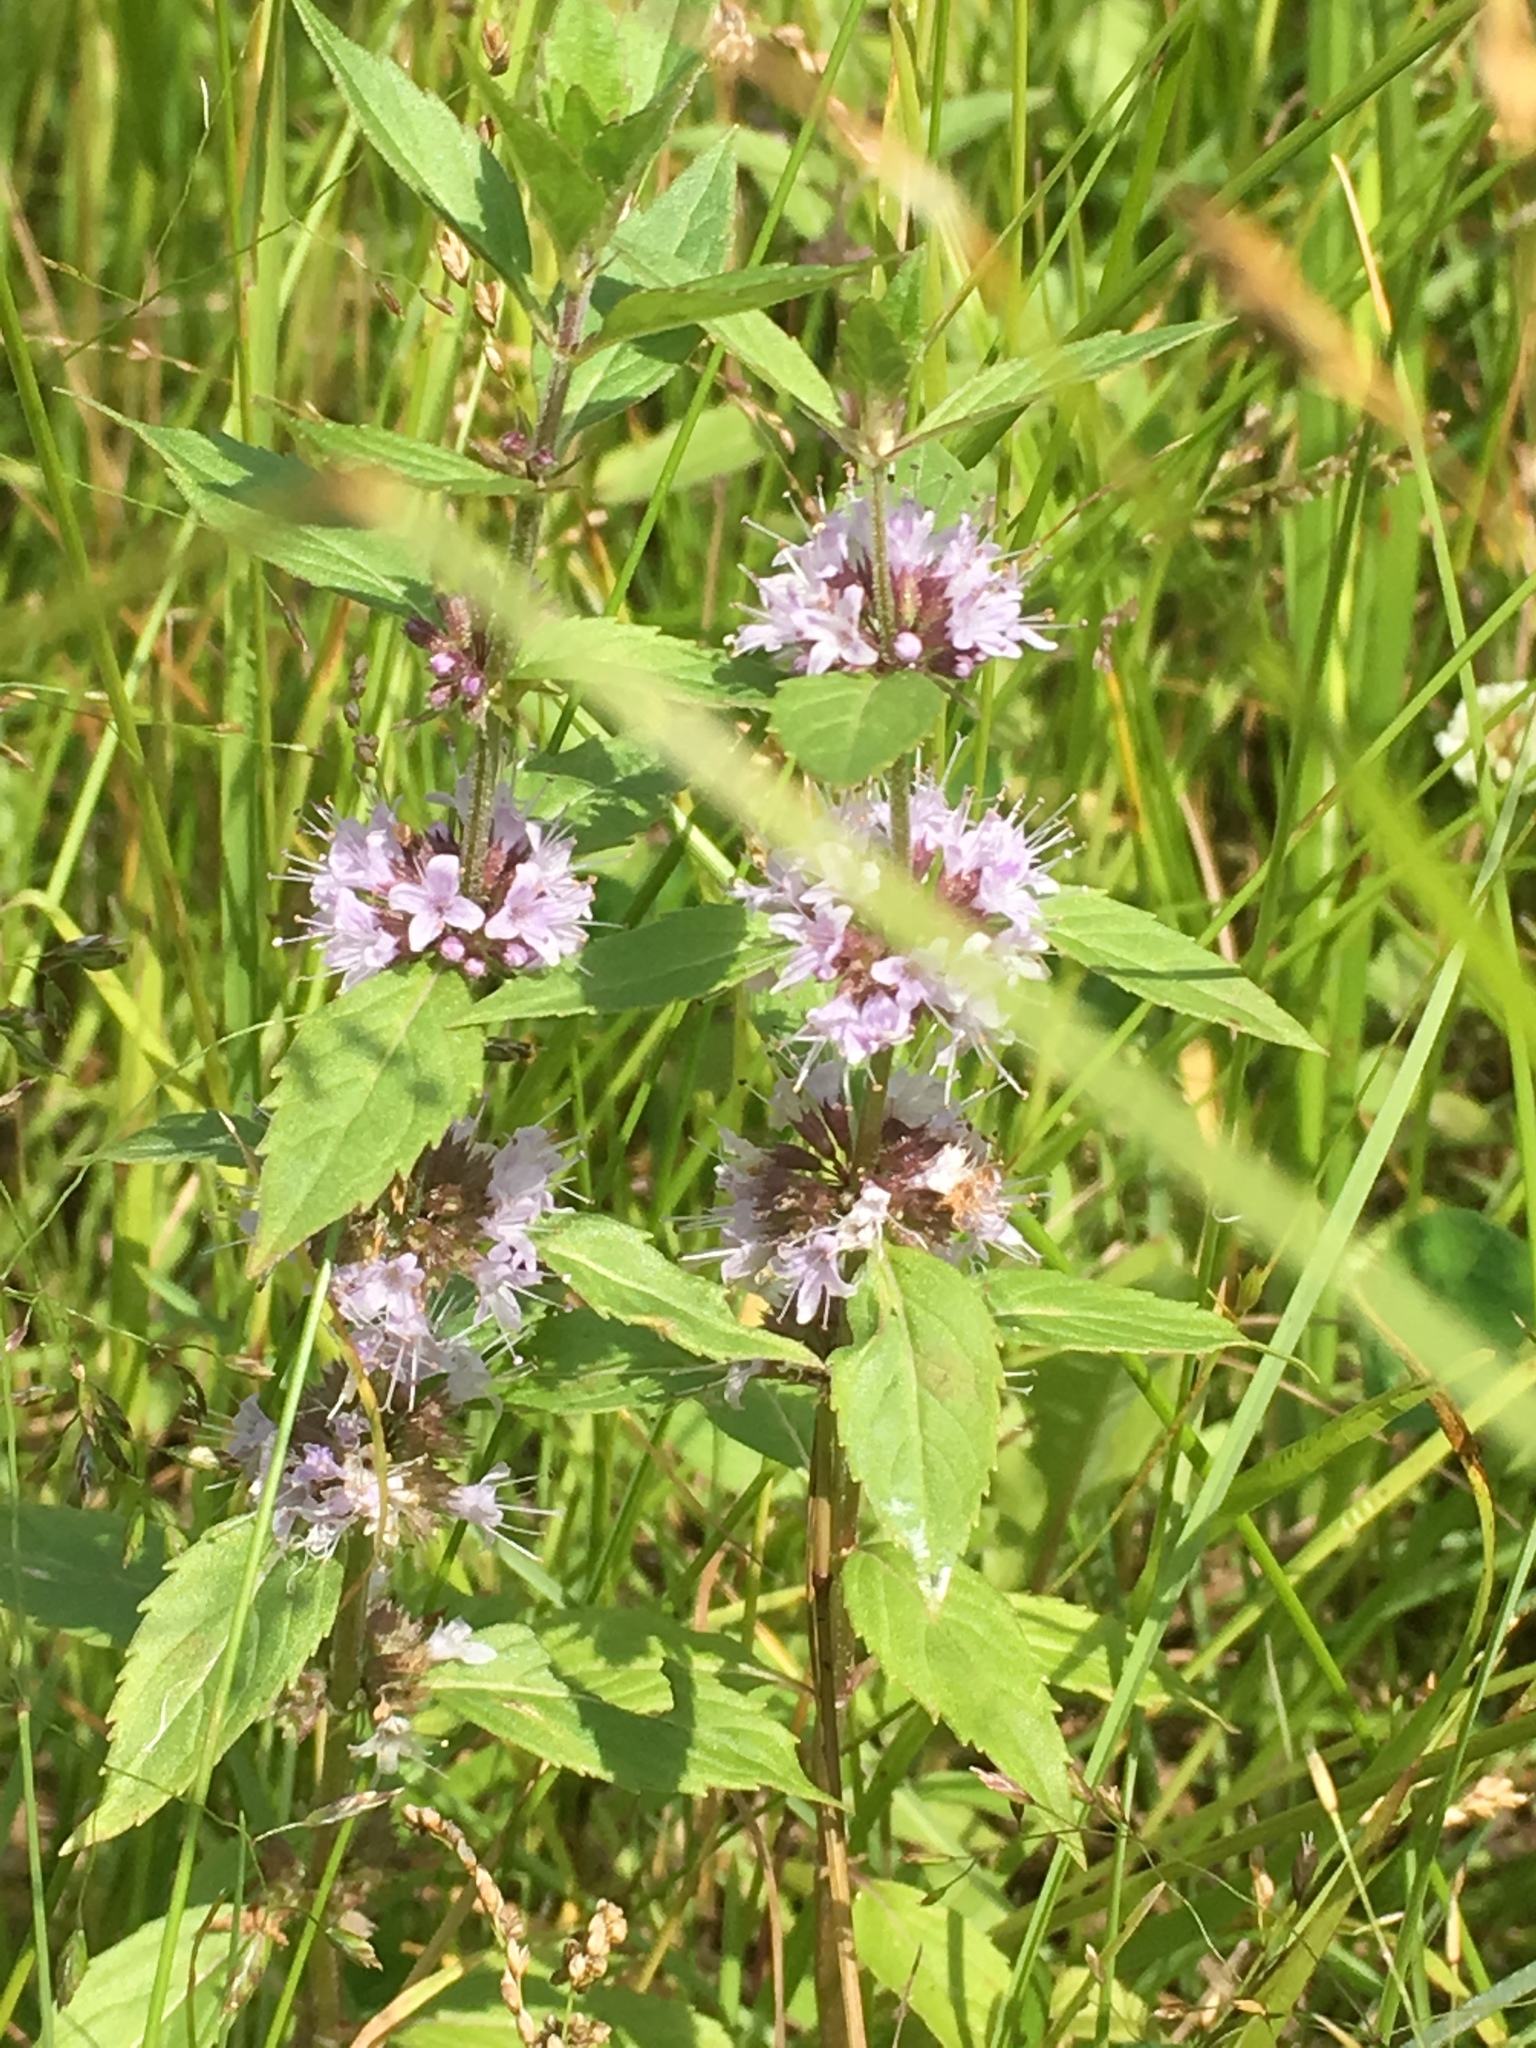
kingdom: Plantae
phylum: Tracheophyta
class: Magnoliopsida
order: Lamiales
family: Lamiaceae
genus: Mentha
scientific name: Mentha canadensis
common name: American corn mint
